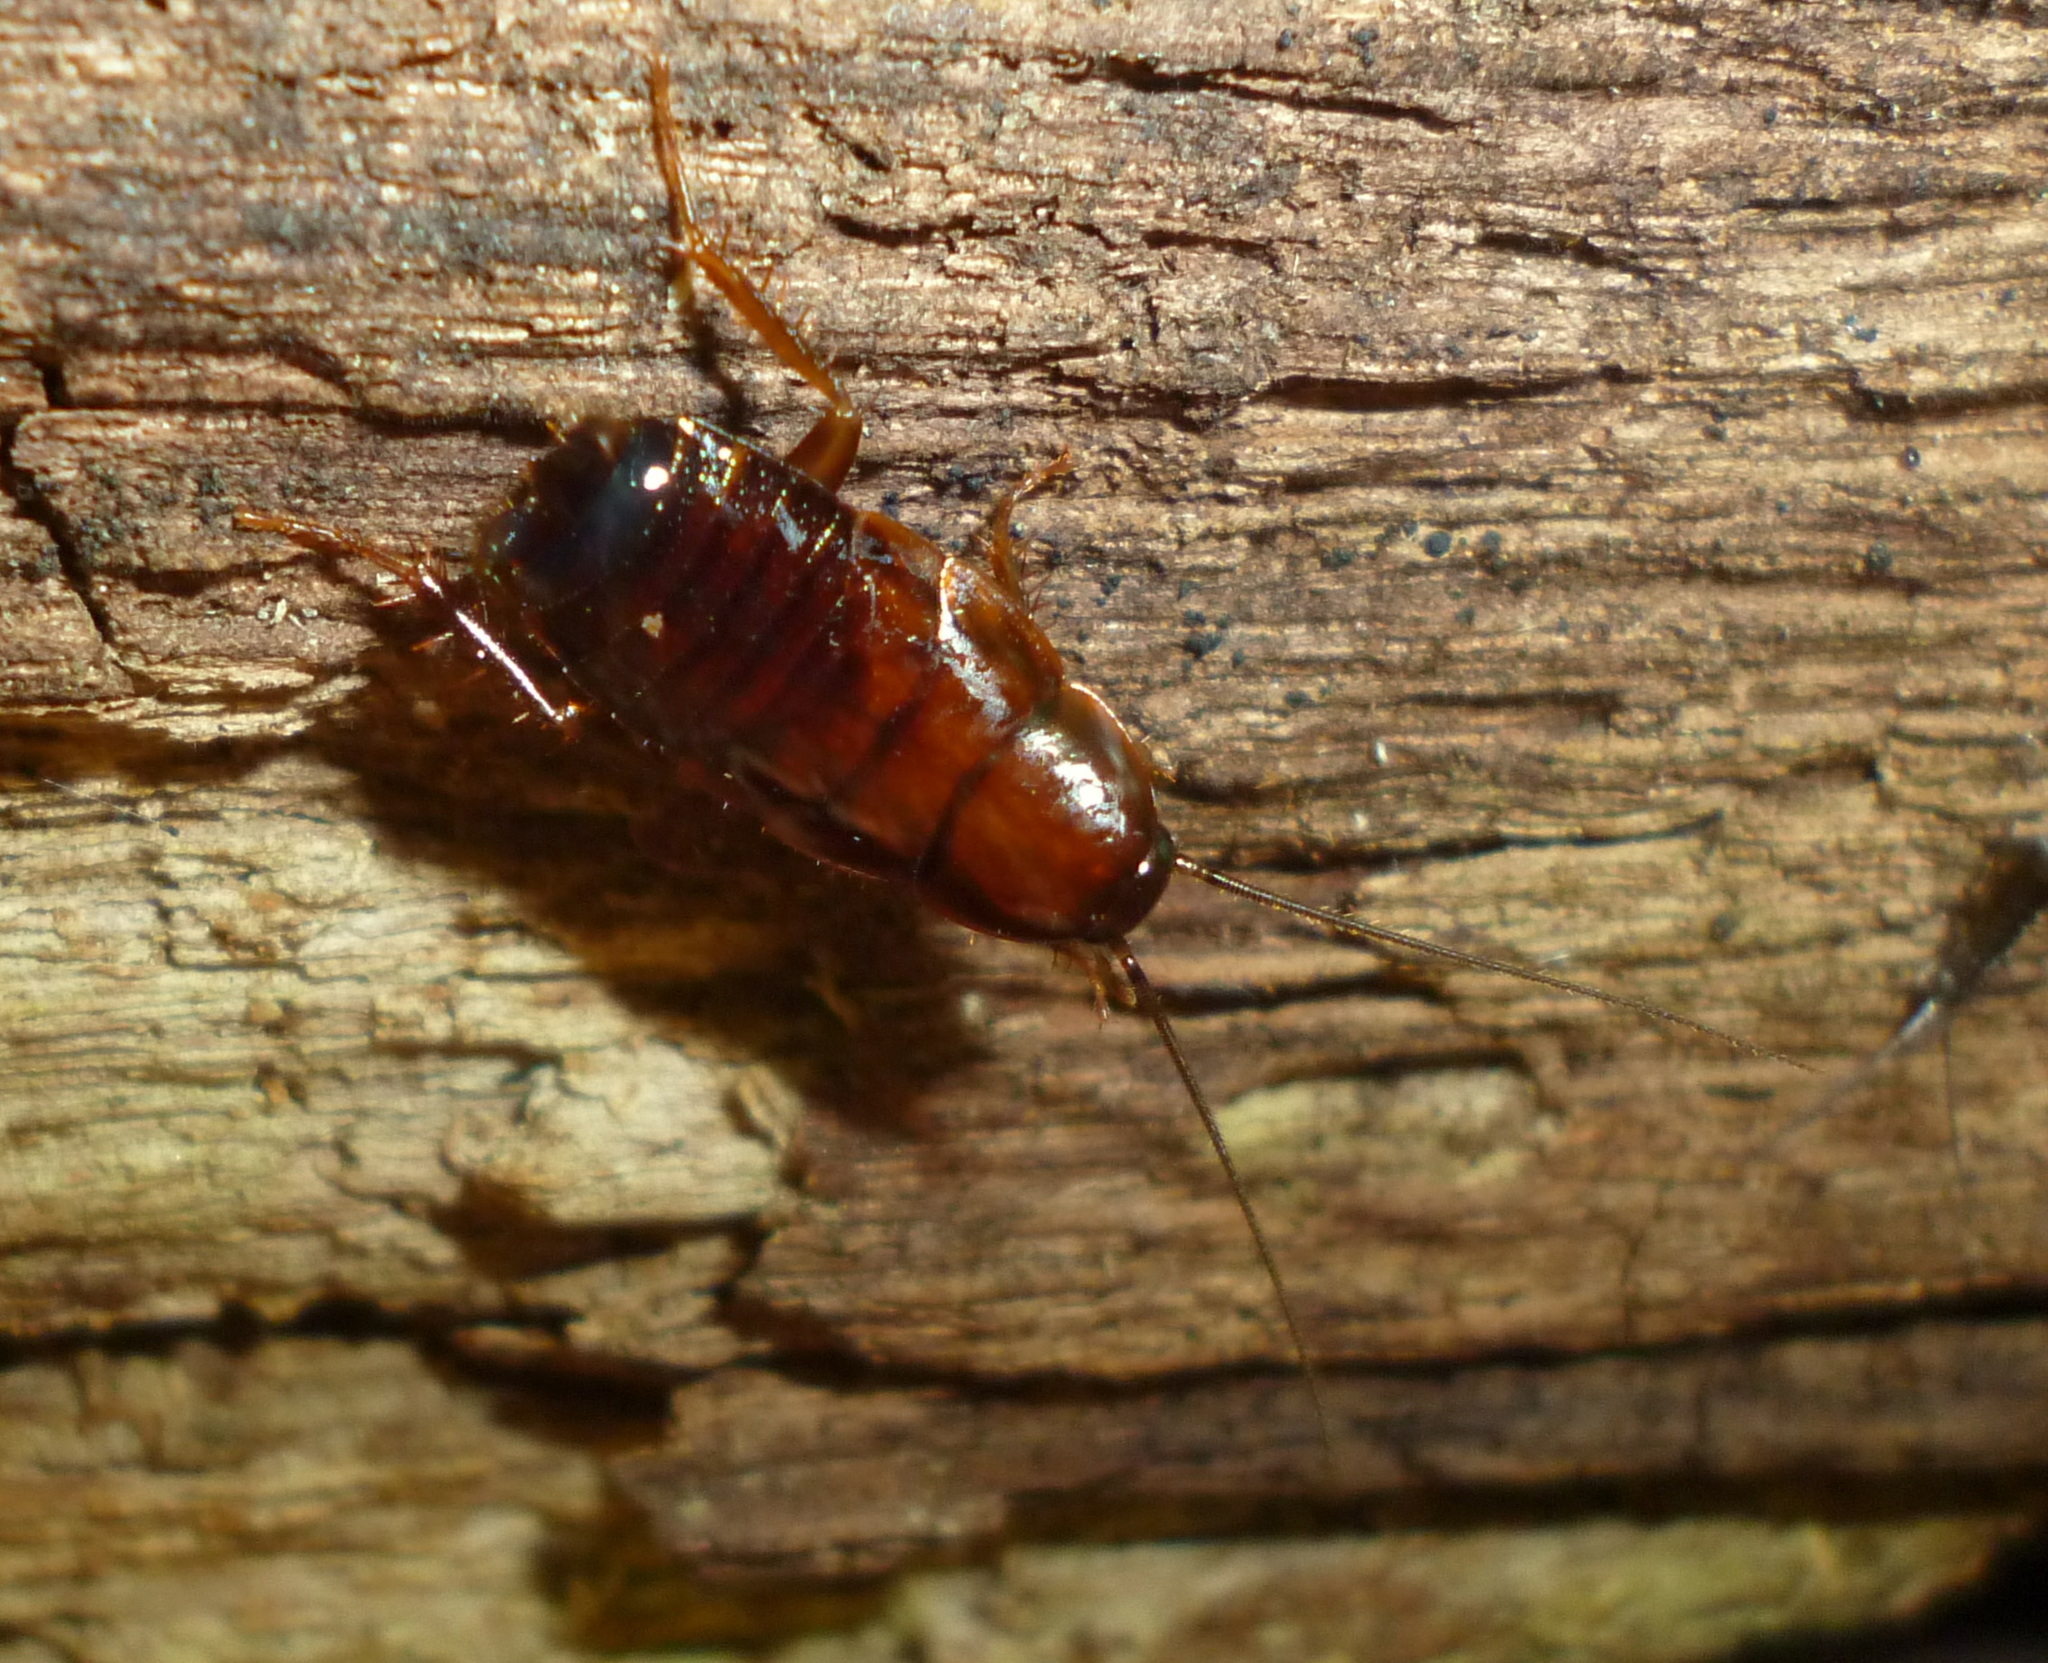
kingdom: Animalia
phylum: Arthropoda
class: Insecta
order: Blattodea
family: Ectobiidae
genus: Parcoblatta
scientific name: Parcoblatta virginica
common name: Virginia wood cockroach
